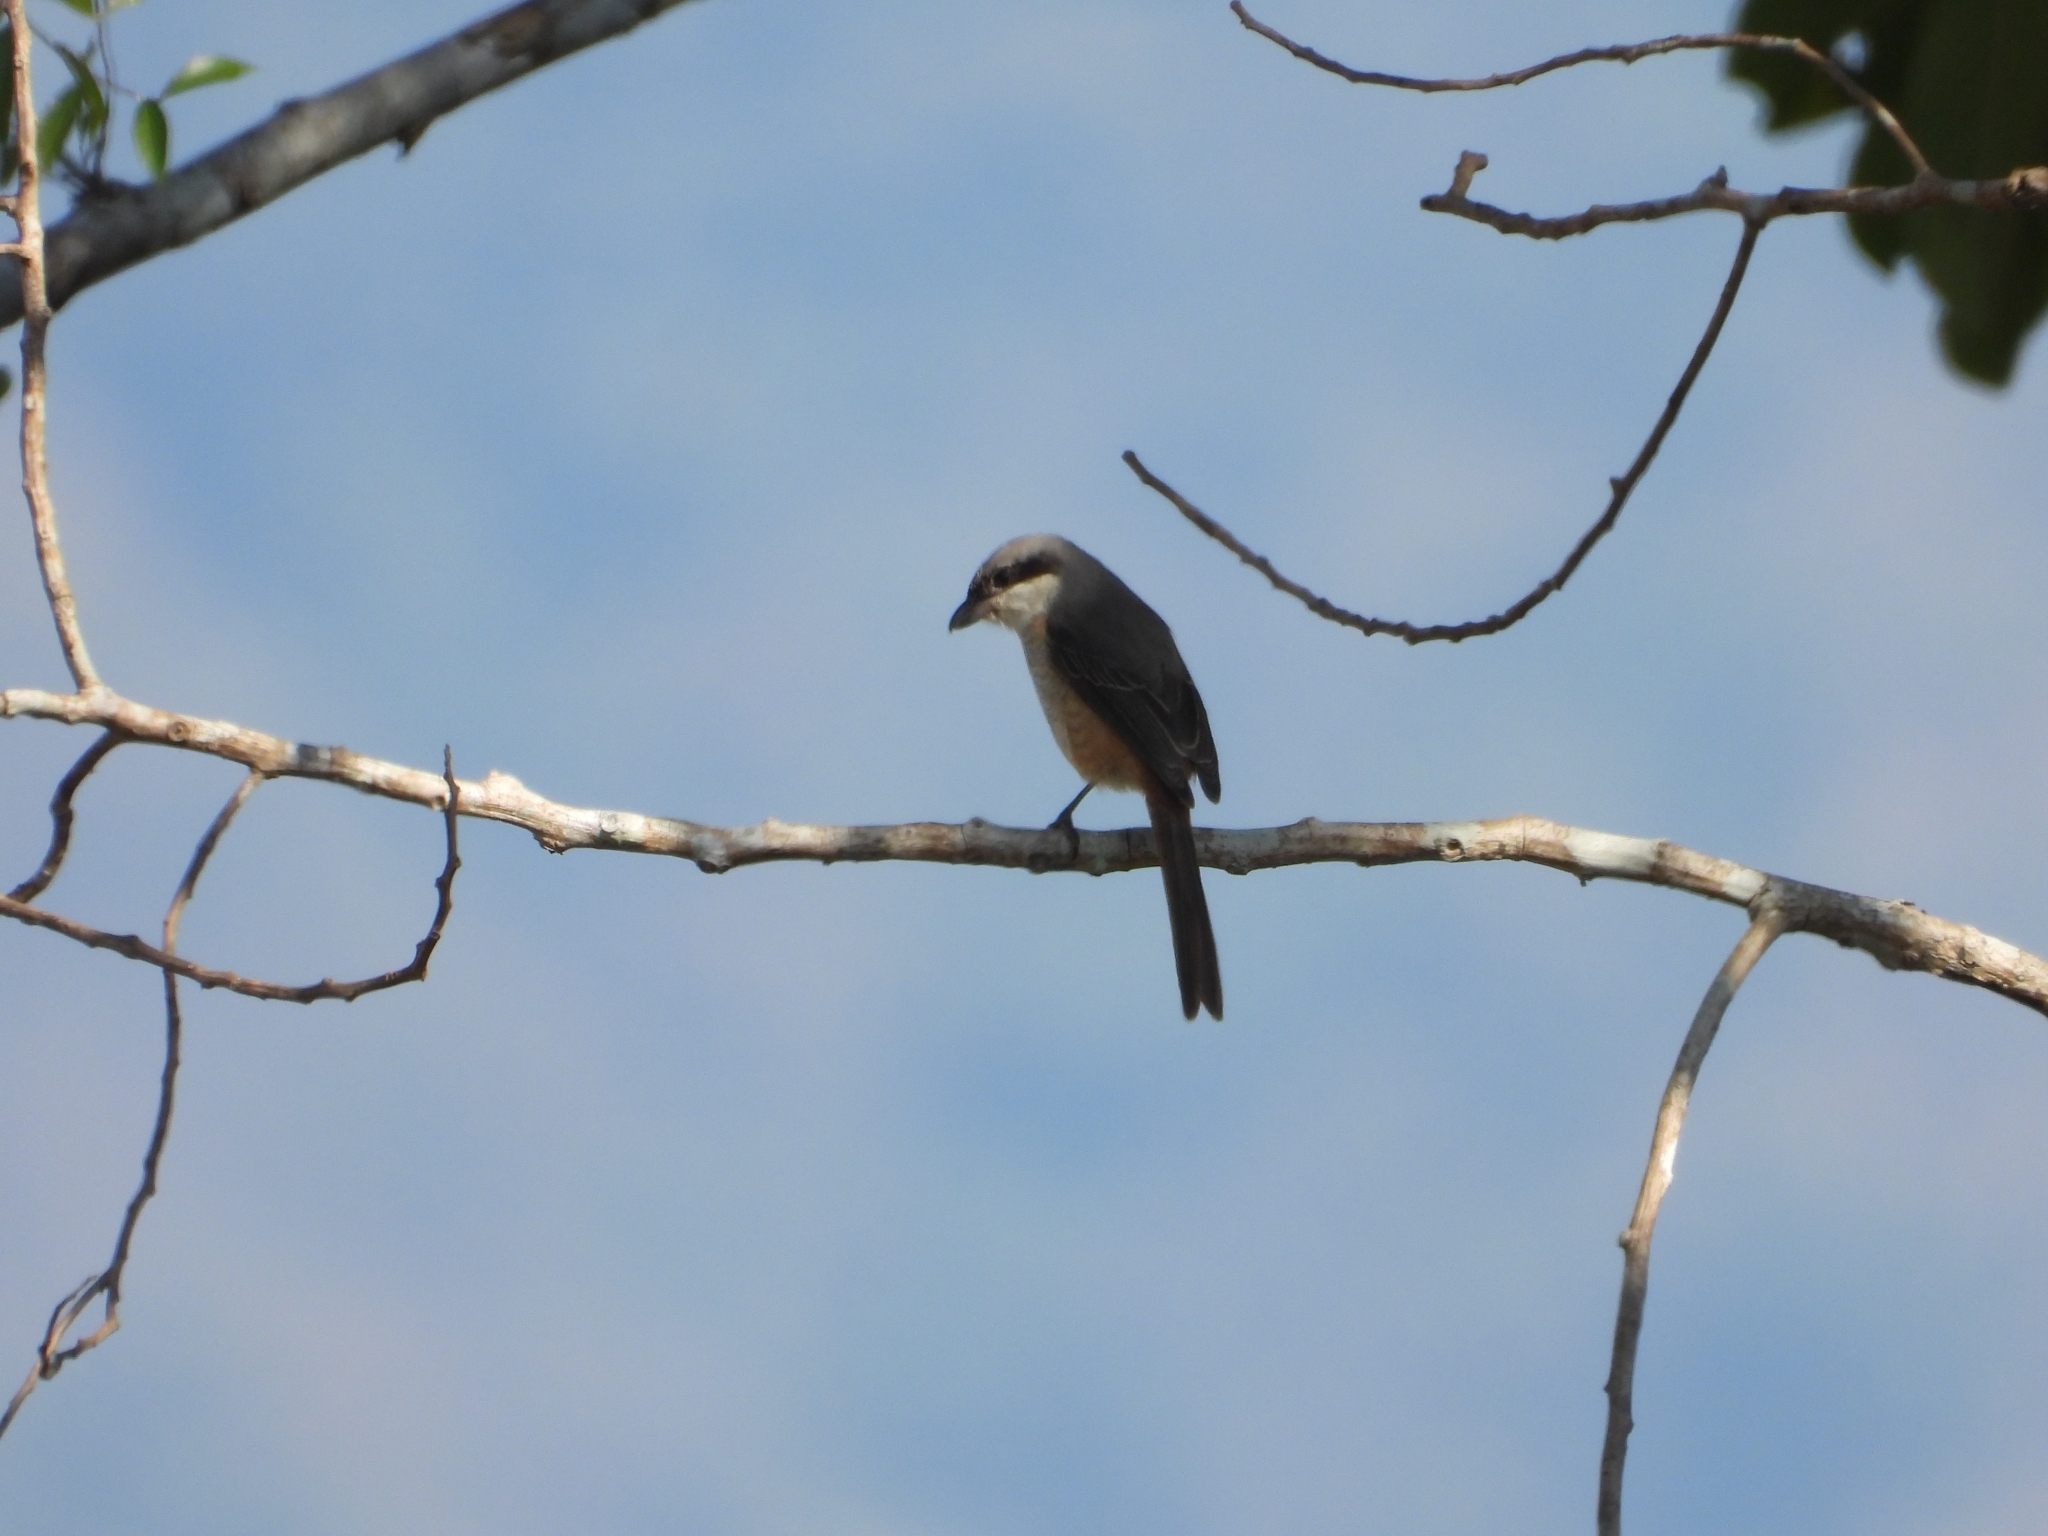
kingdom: Animalia
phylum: Chordata
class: Aves
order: Passeriformes
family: Laniidae
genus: Lanius
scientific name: Lanius tephronotus
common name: Grey-backed shrike
